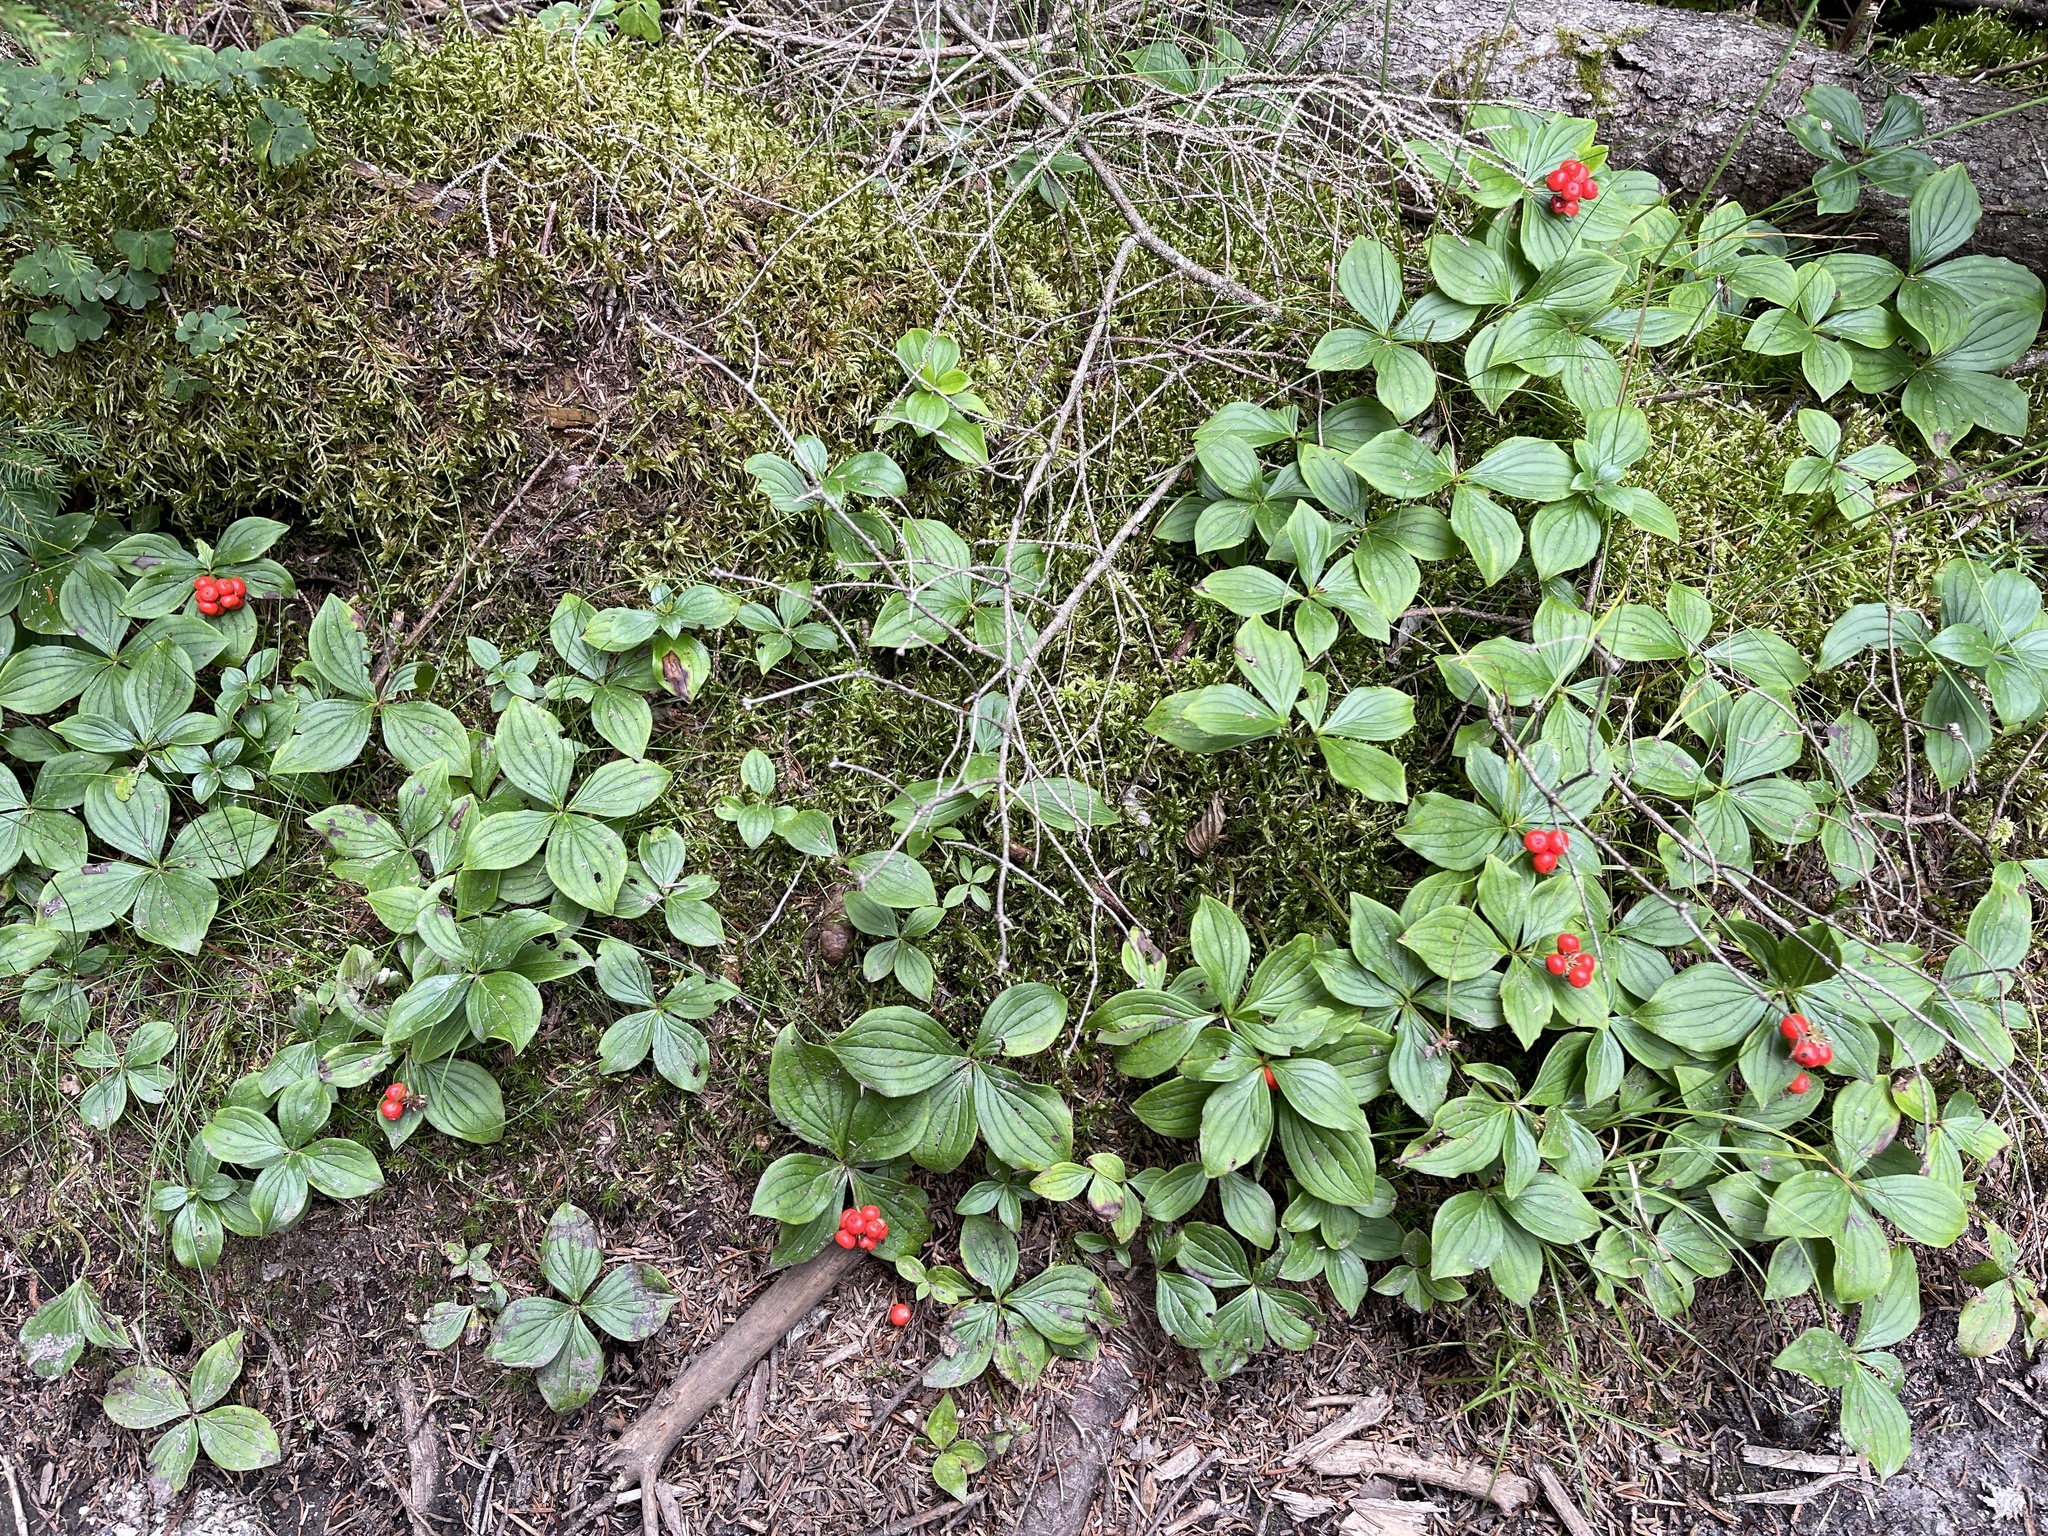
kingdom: Plantae
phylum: Tracheophyta
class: Magnoliopsida
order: Cornales
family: Cornaceae
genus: Cornus
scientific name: Cornus canadensis
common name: Creeping dogwood
